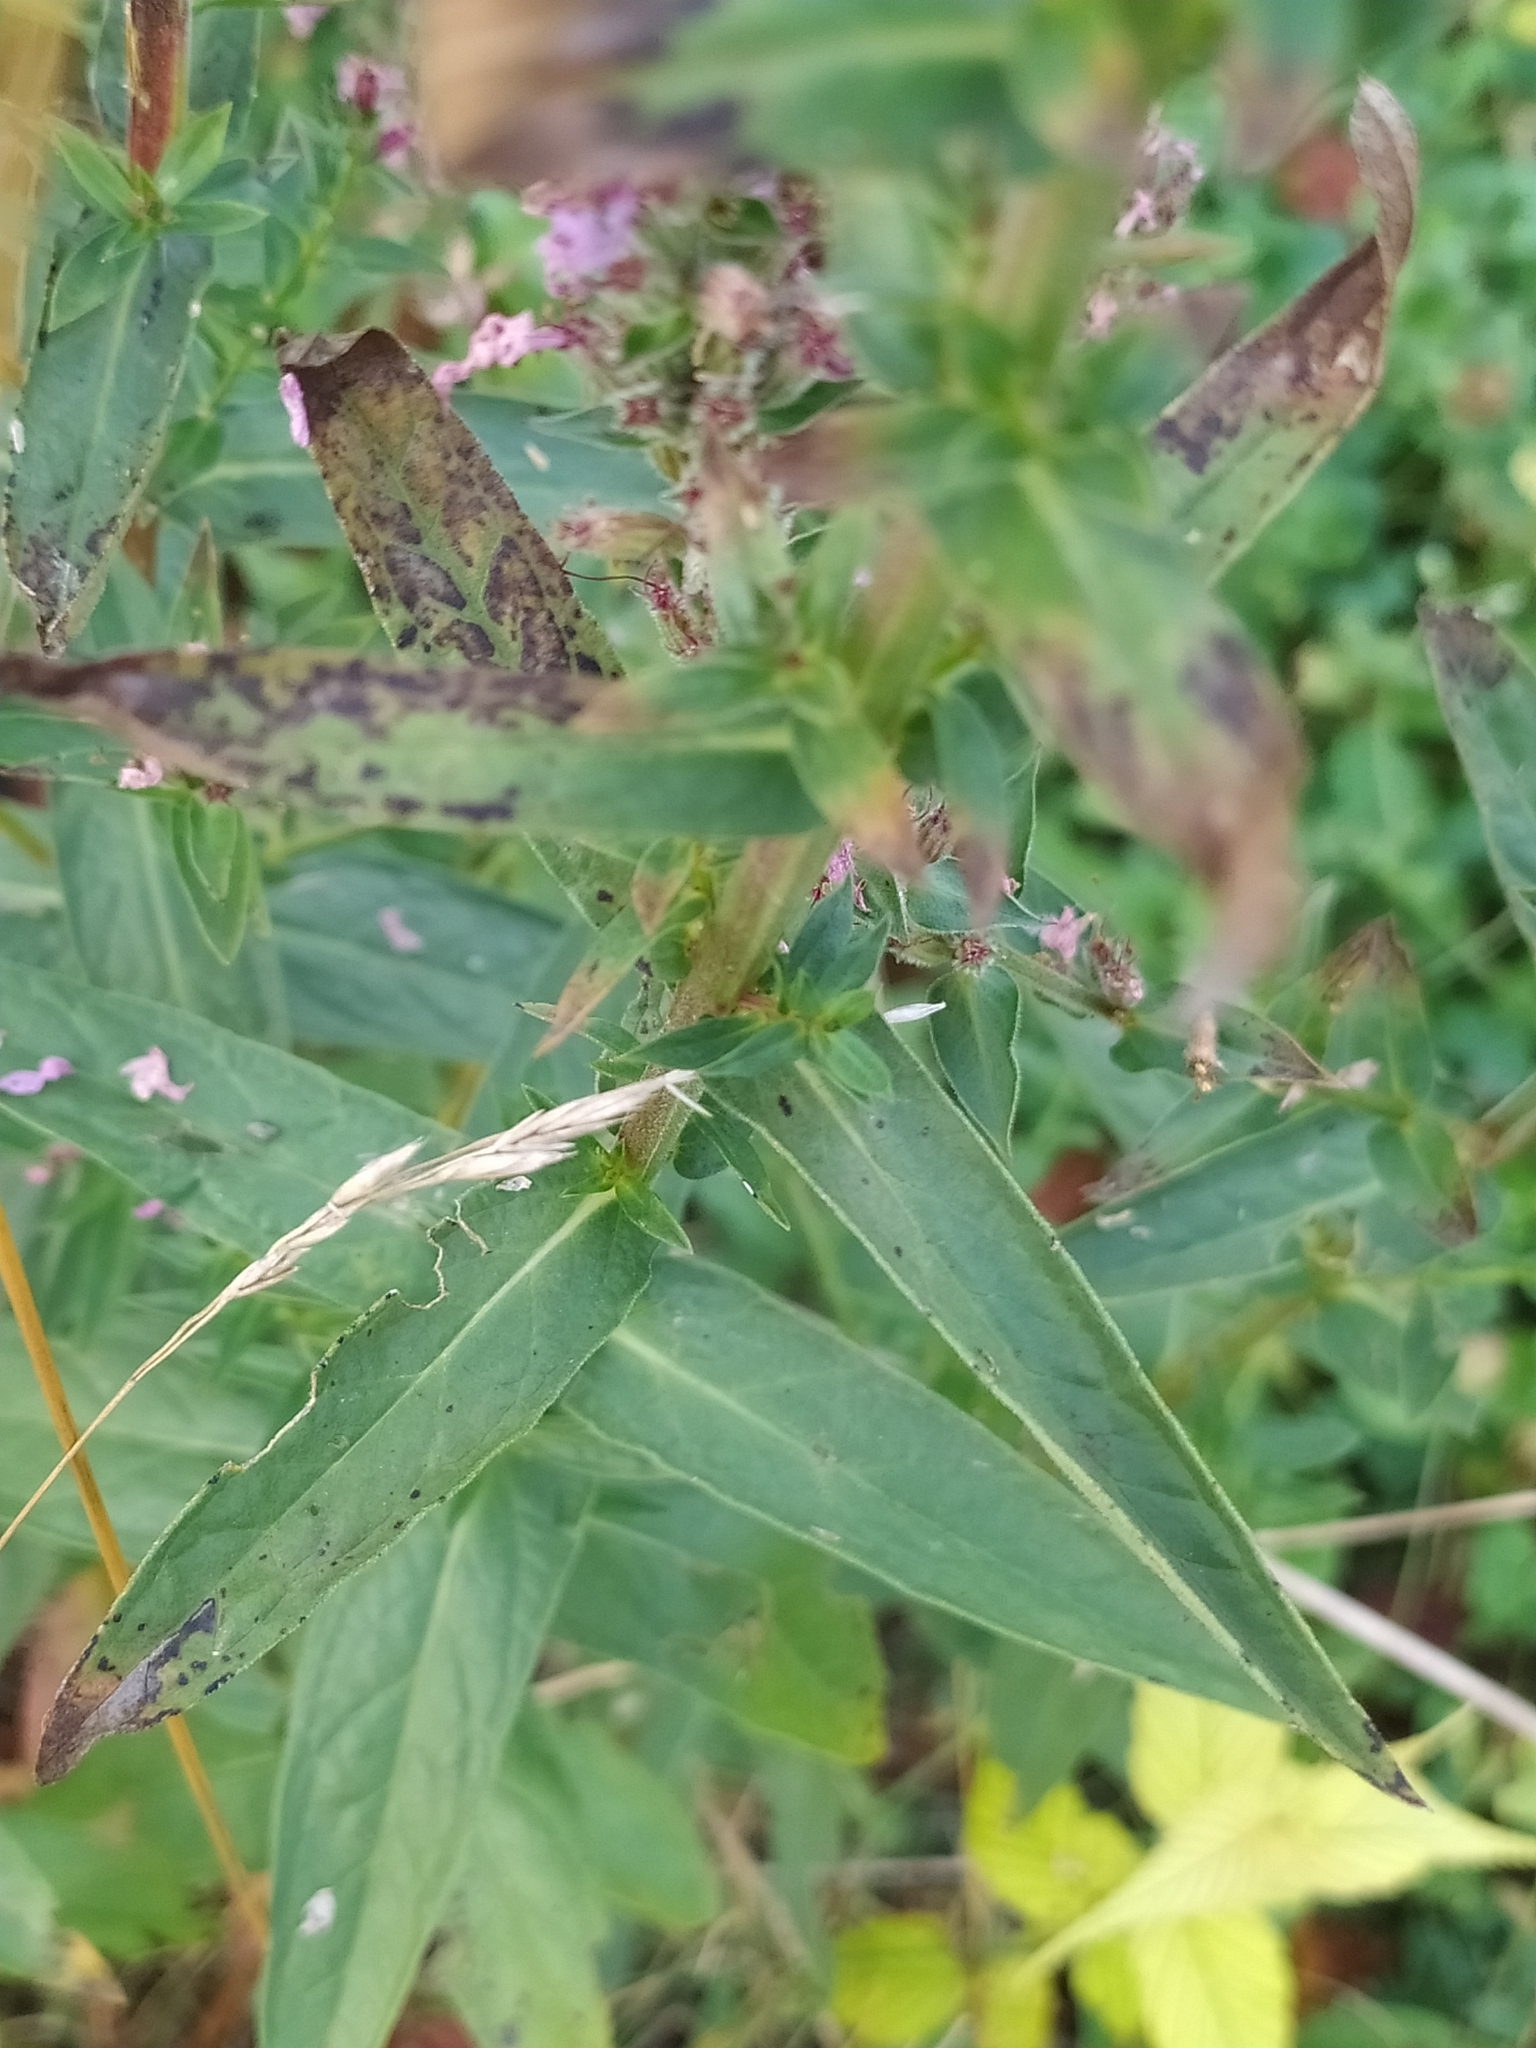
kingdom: Plantae
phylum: Tracheophyta
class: Magnoliopsida
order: Myrtales
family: Lythraceae
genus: Lythrum
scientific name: Lythrum salicaria
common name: Purple loosestrife
